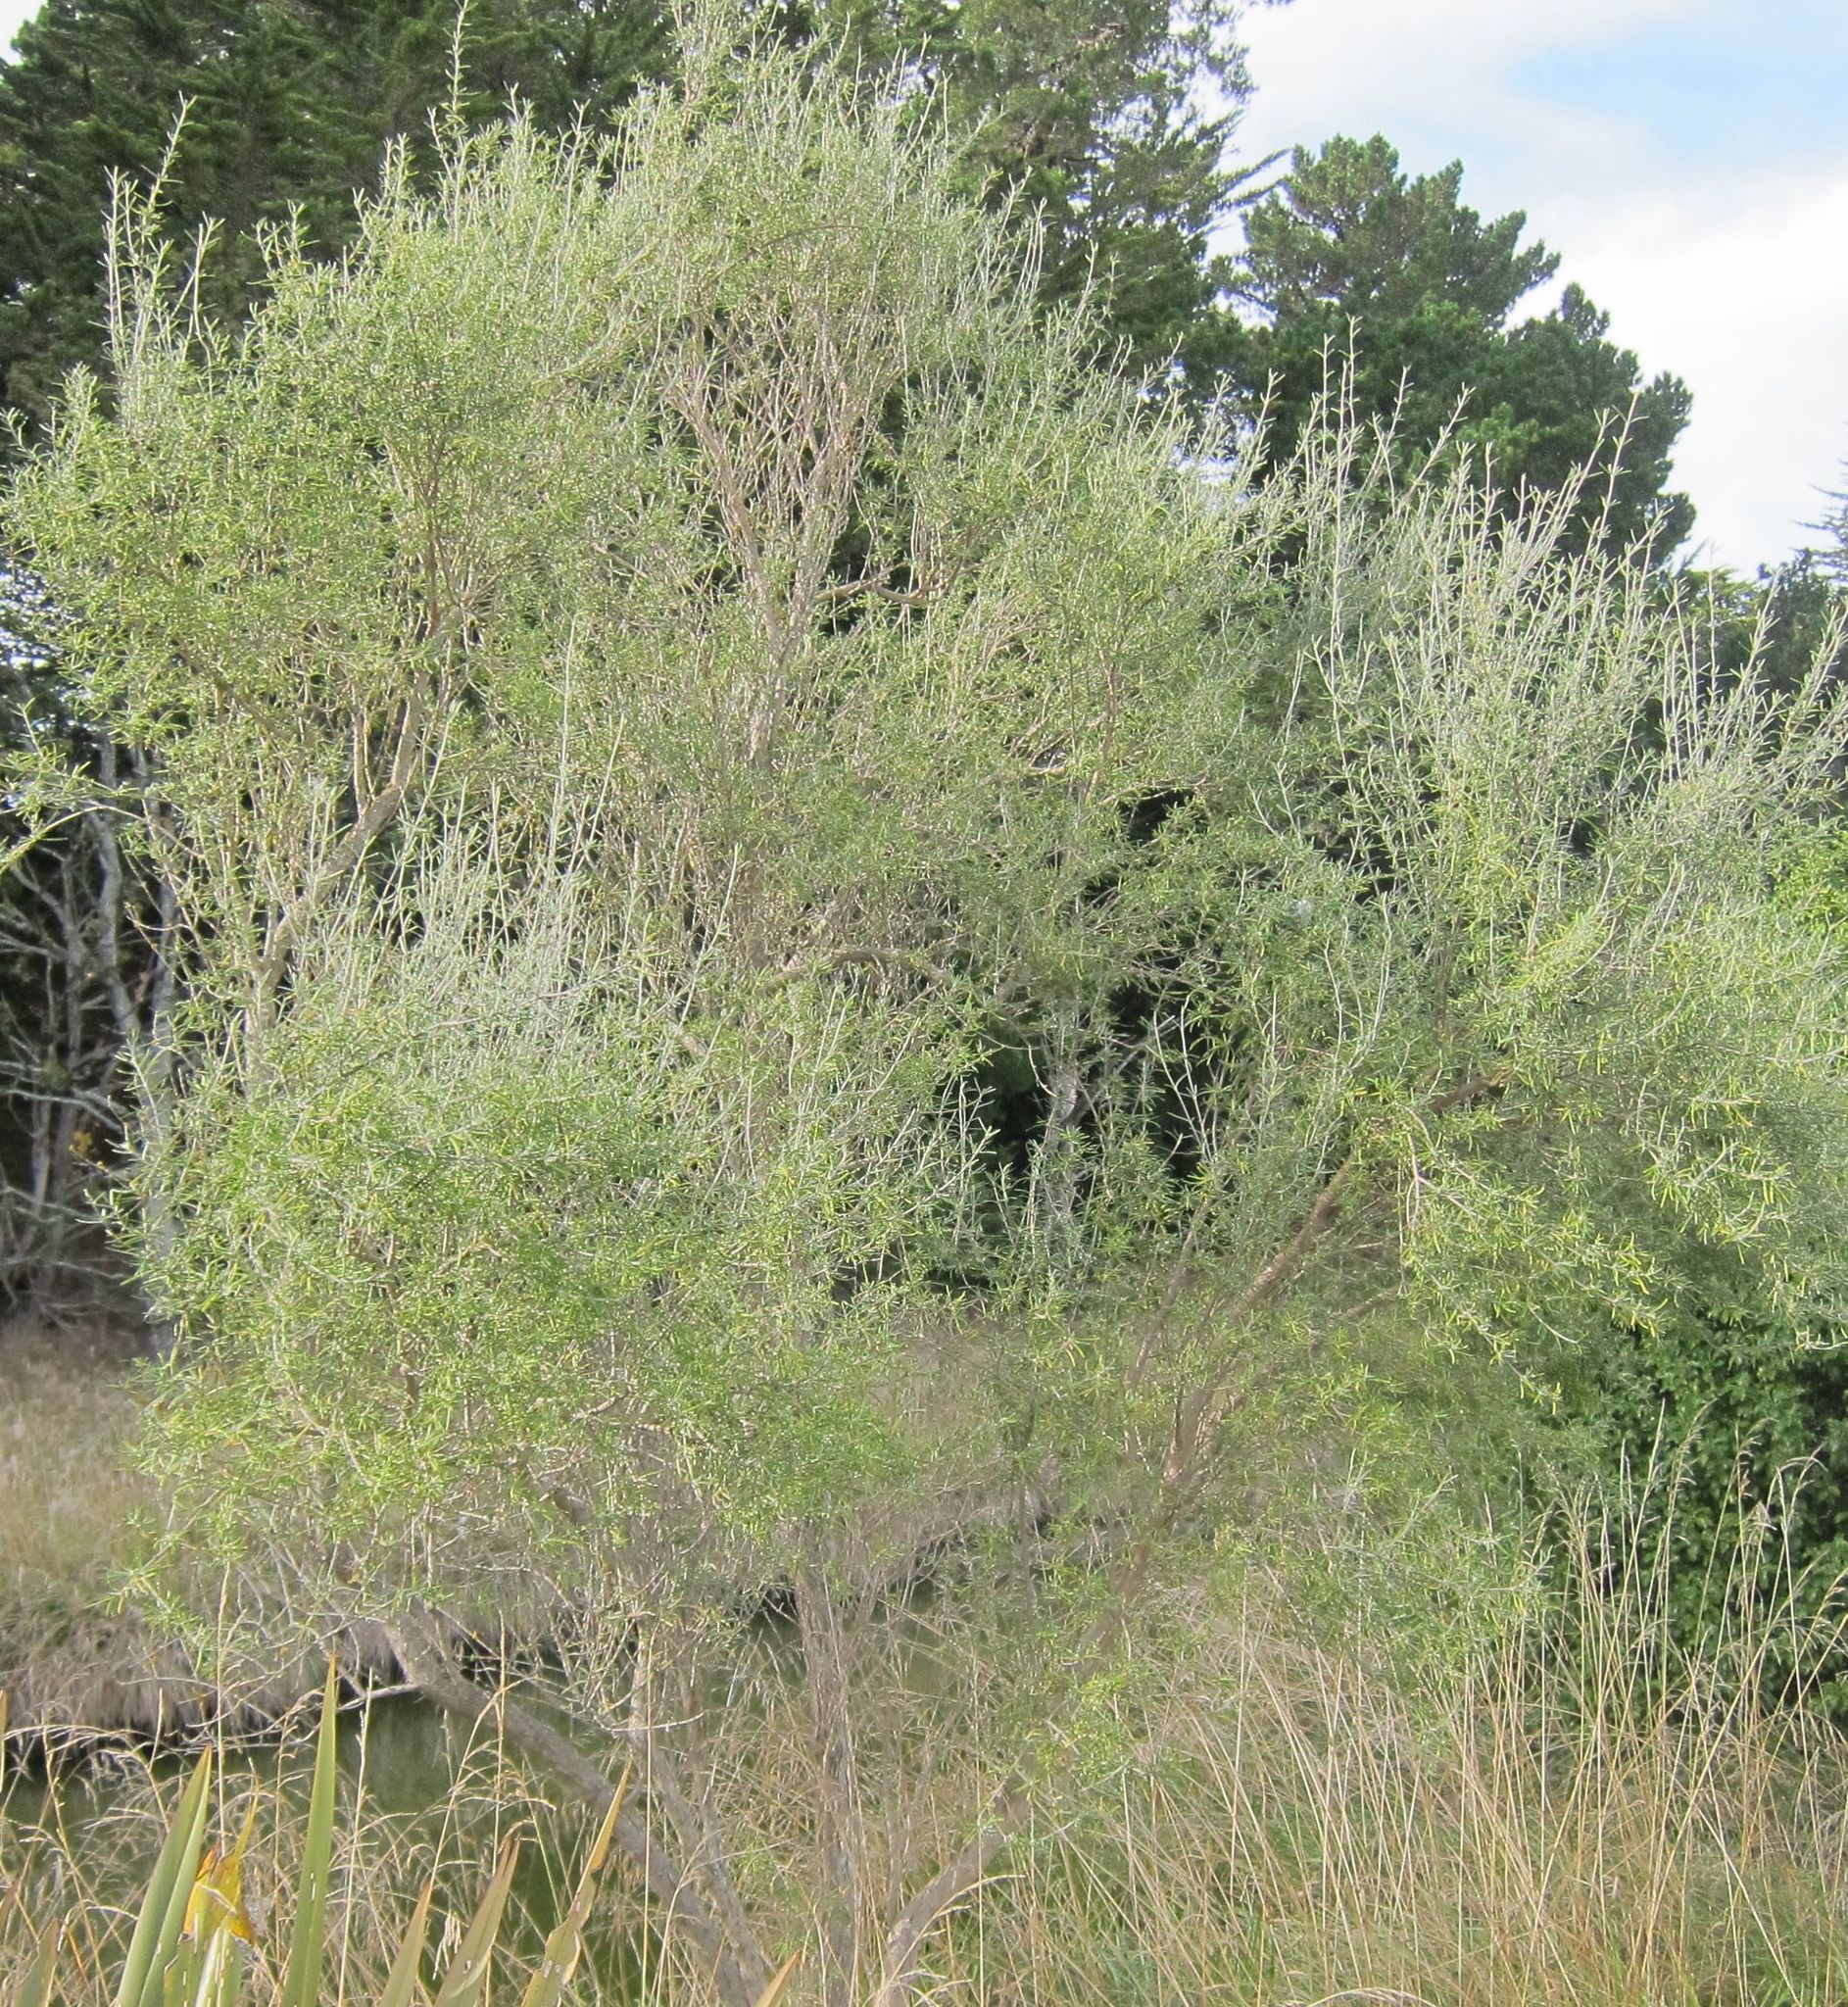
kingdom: Plantae
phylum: Tracheophyta
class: Magnoliopsida
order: Asterales
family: Asteraceae
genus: Olearia
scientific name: Olearia lineata
